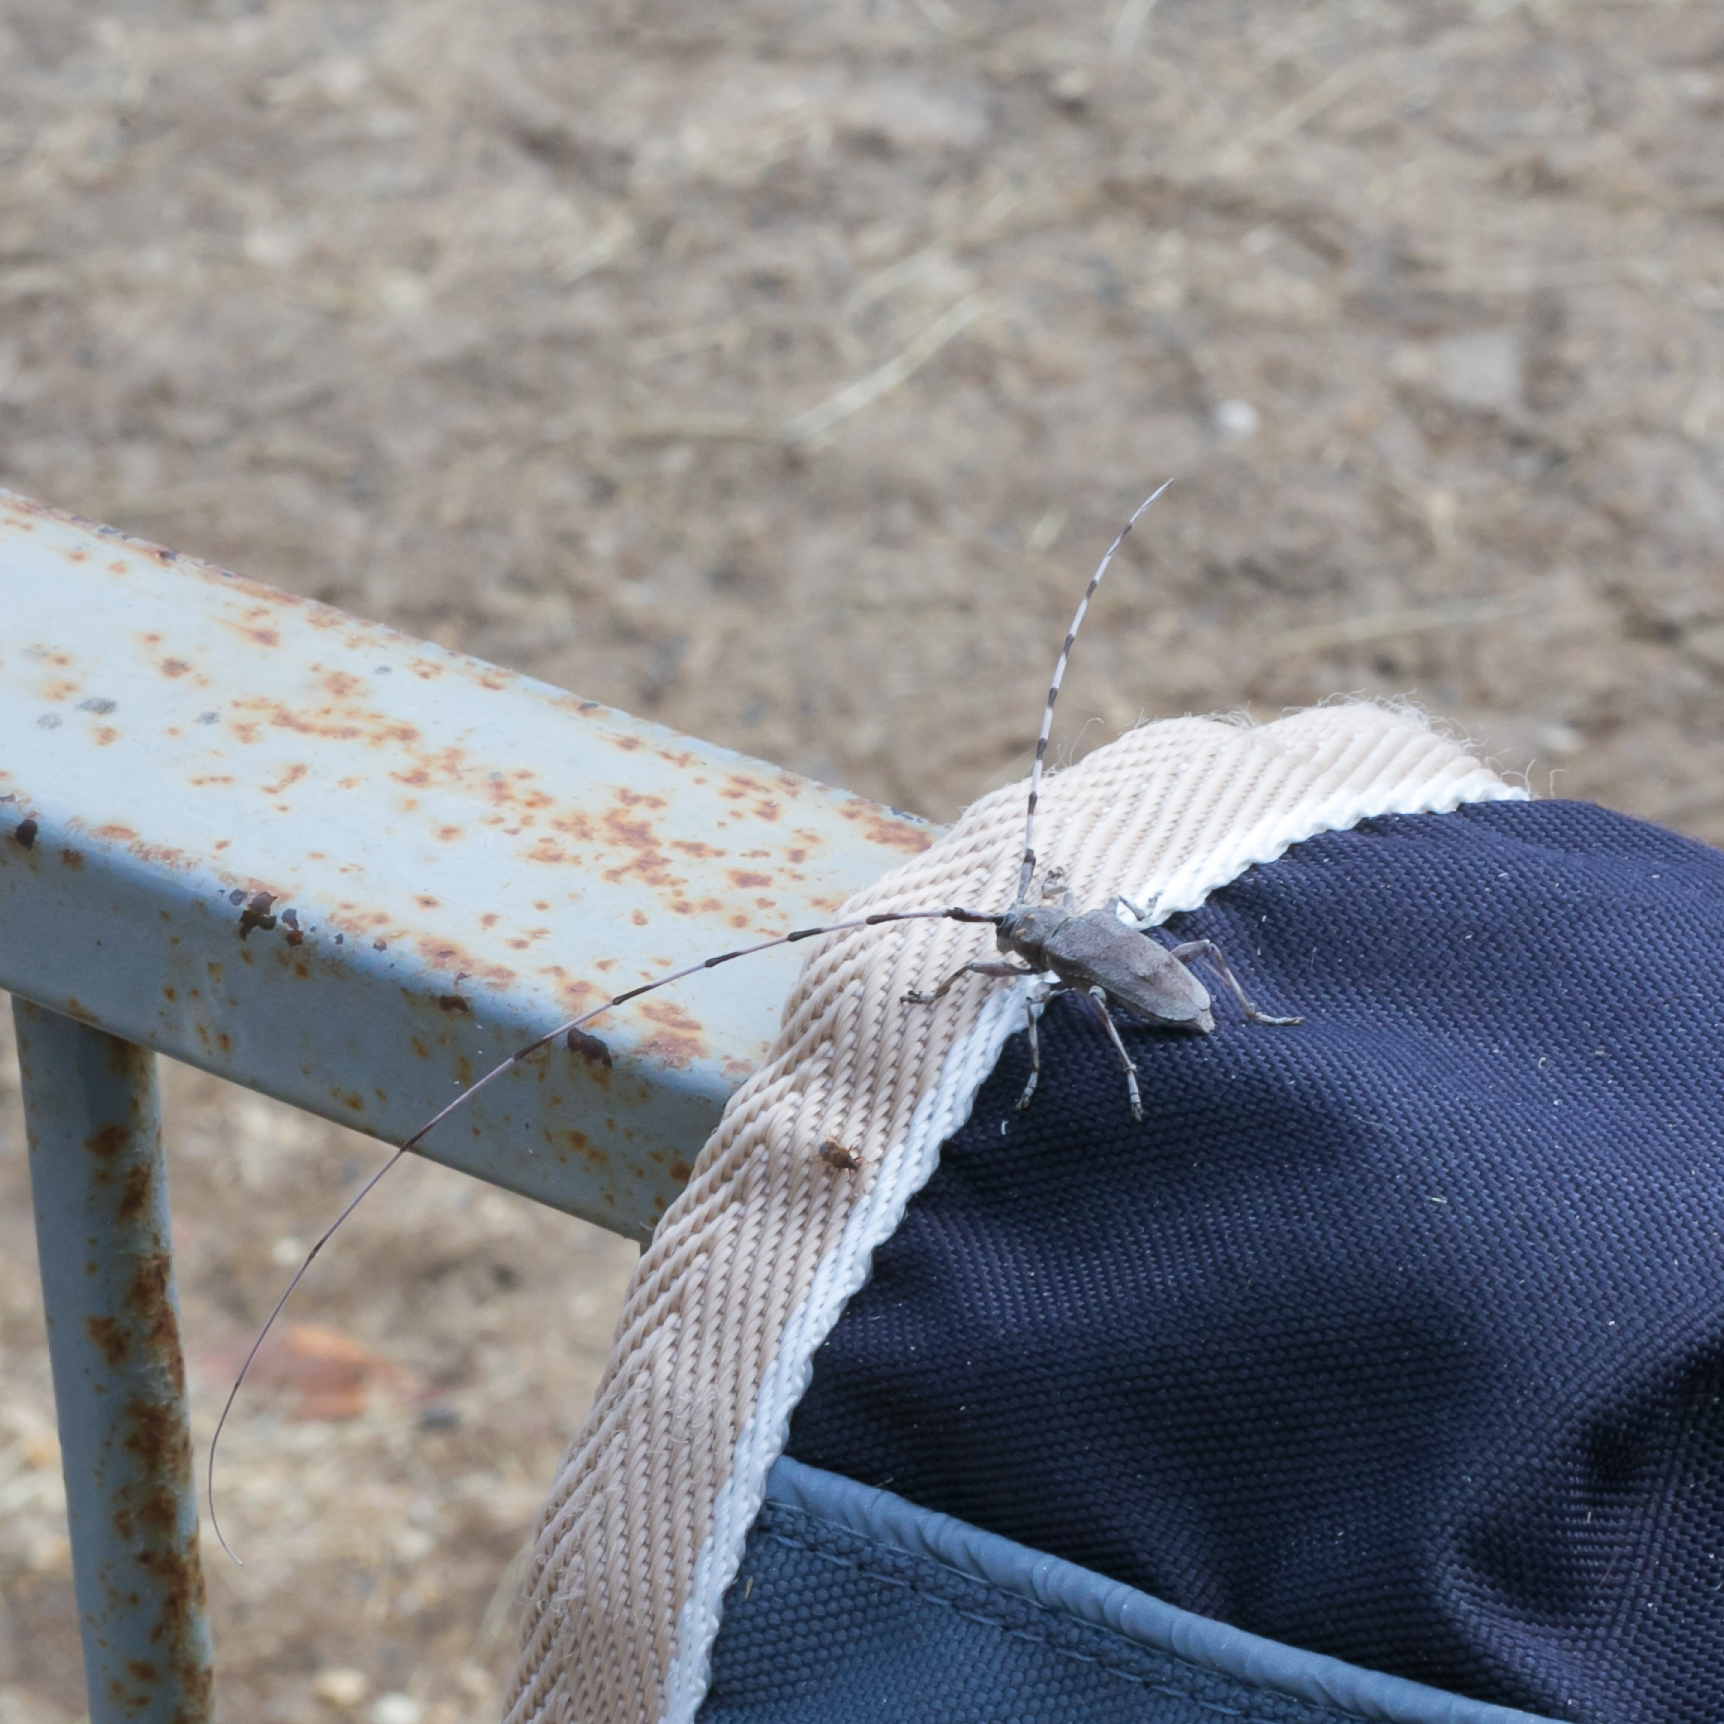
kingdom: Animalia
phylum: Arthropoda
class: Insecta
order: Coleoptera
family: Cerambycidae
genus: Acanthocinus
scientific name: Acanthocinus aedilis
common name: Timberman beetle
